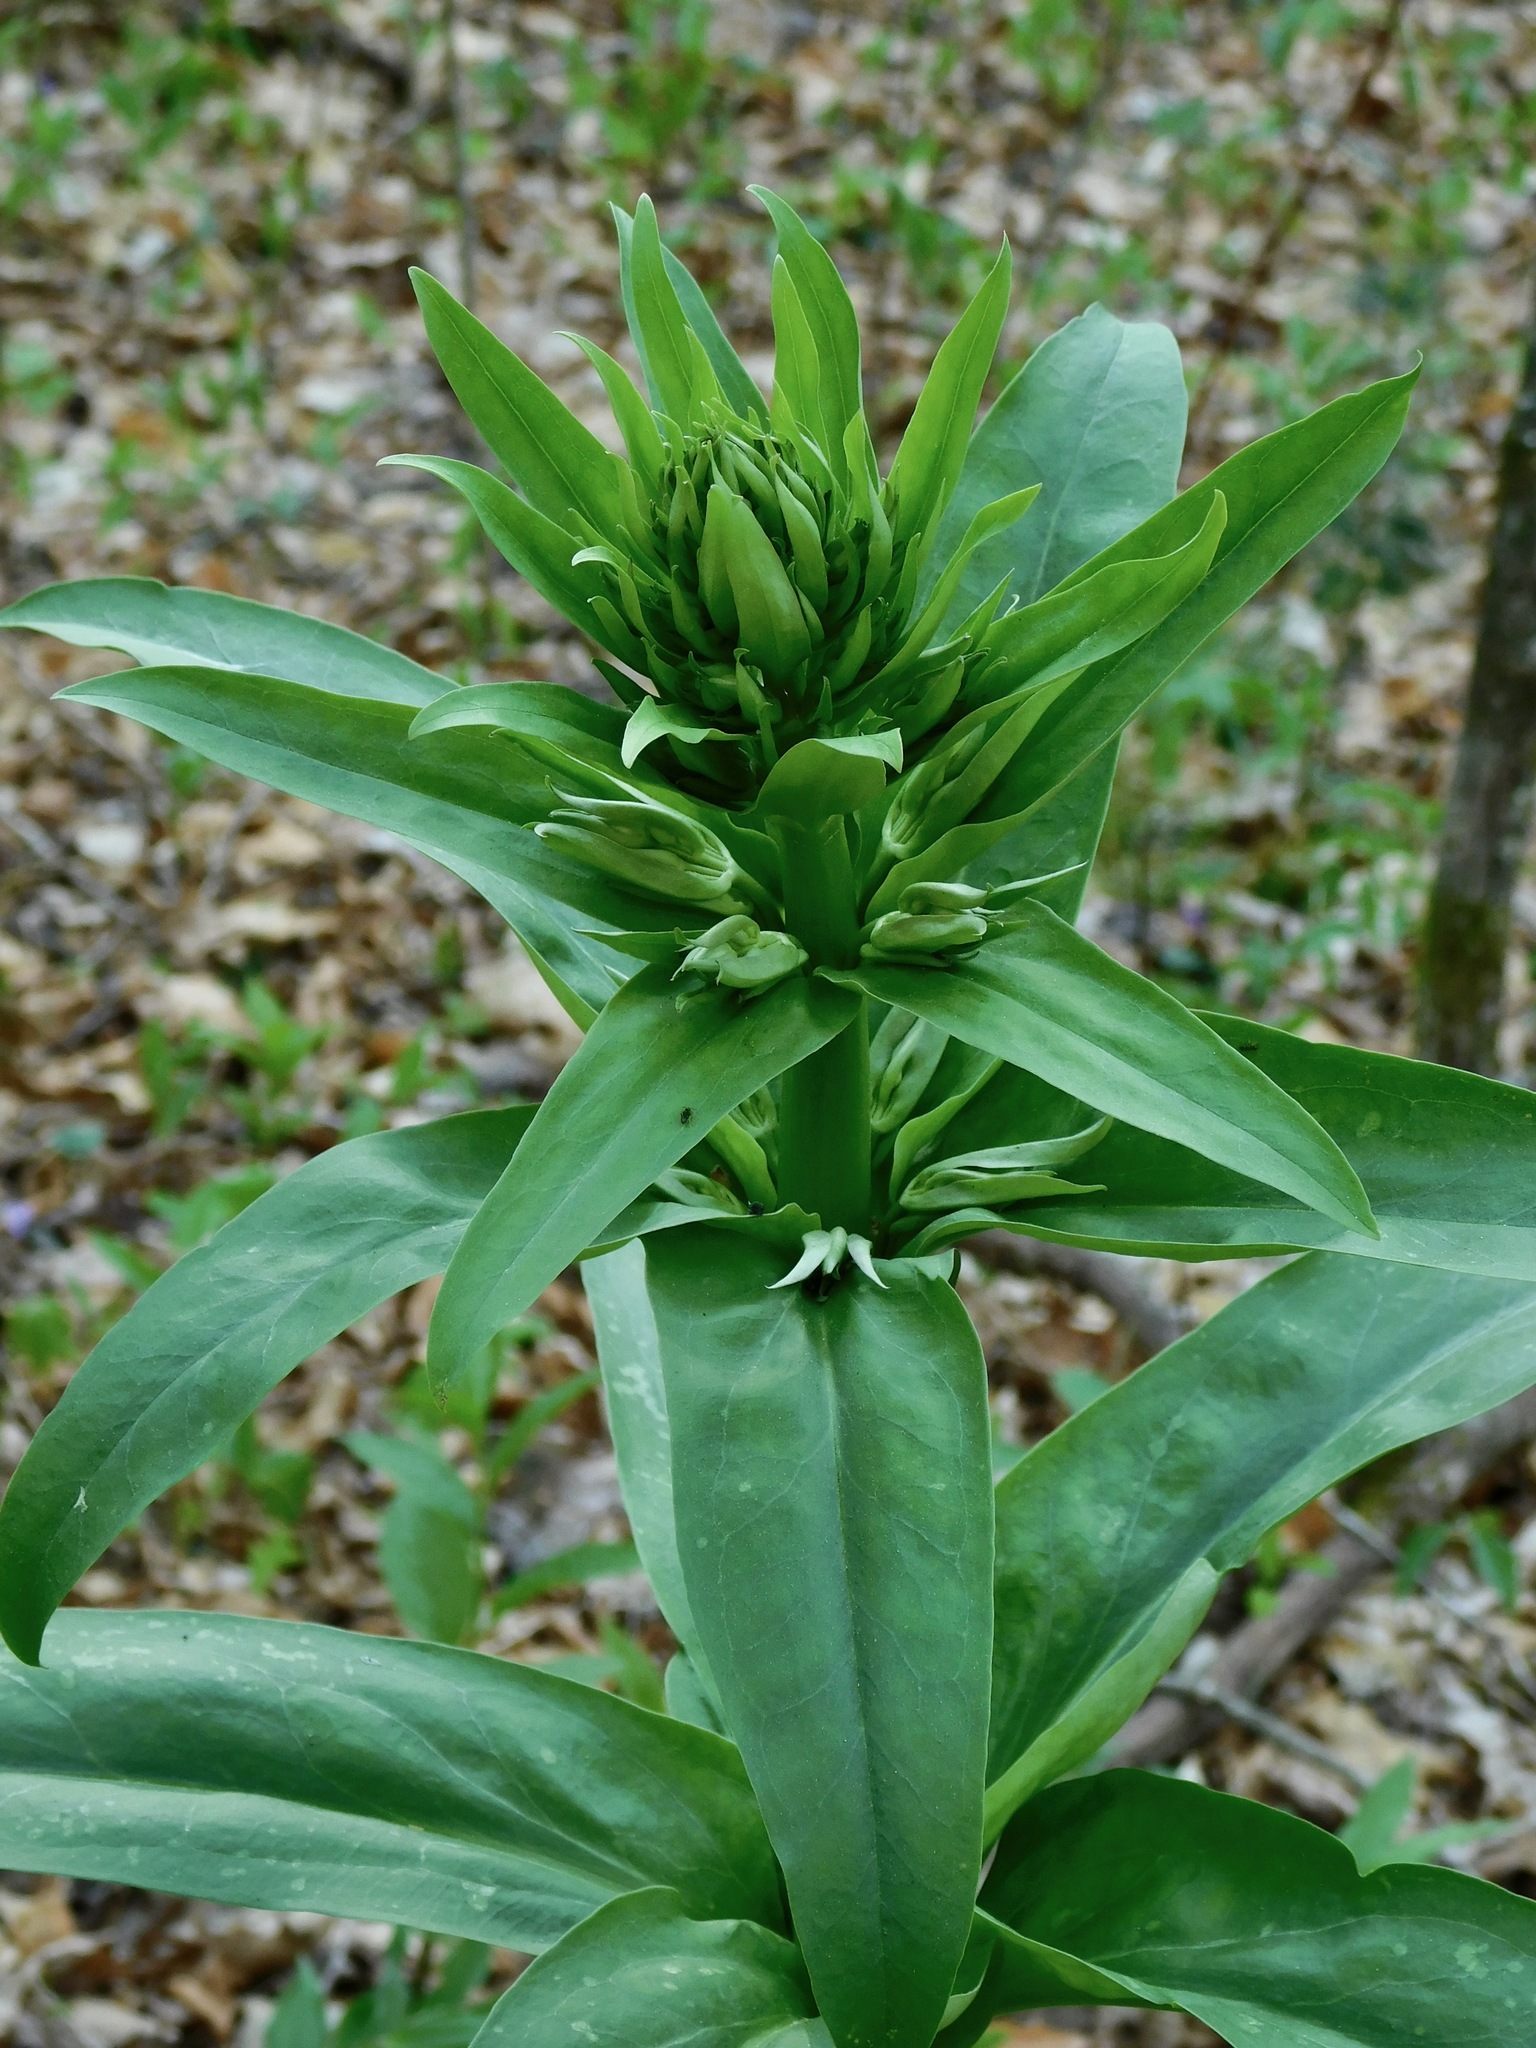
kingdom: Plantae
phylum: Tracheophyta
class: Magnoliopsida
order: Gentianales
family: Gentianaceae
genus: Frasera
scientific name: Frasera caroliniensis
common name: American columbo
